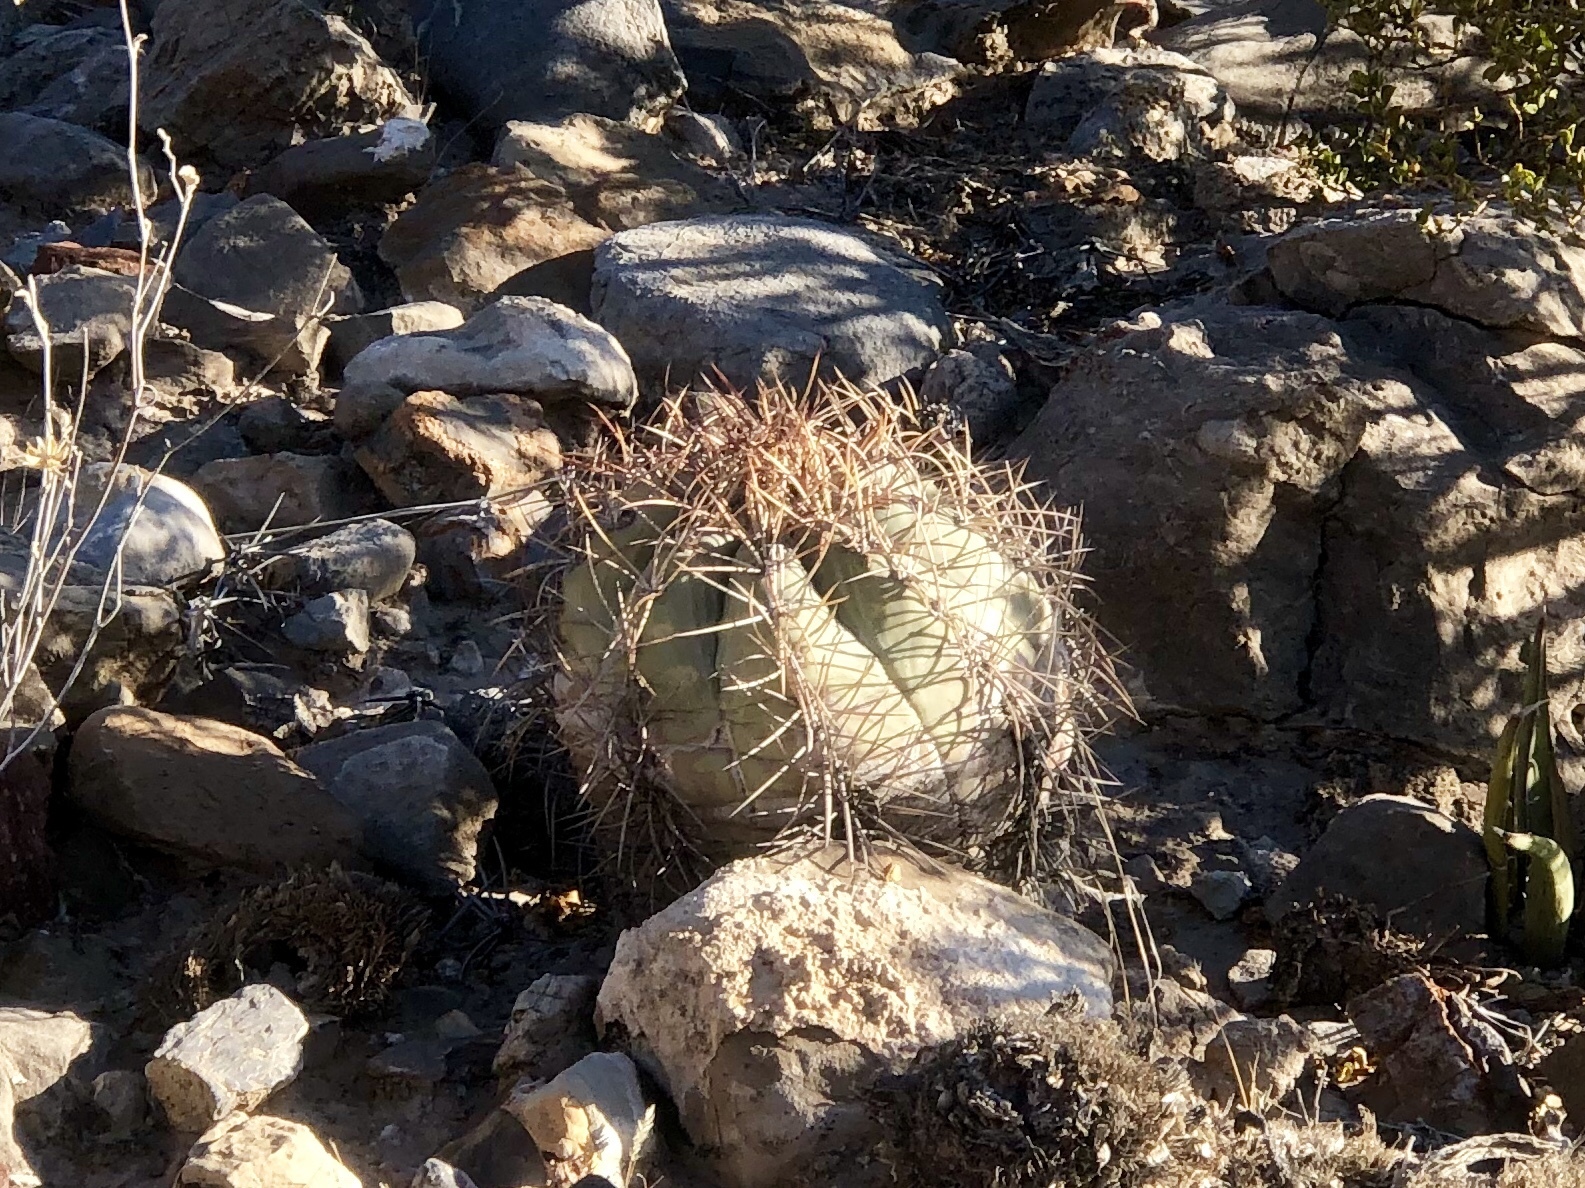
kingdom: Plantae
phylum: Tracheophyta
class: Magnoliopsida
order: Caryophyllales
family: Cactaceae
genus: Echinocactus
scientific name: Echinocactus horizonthalonius
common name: Devilshead
